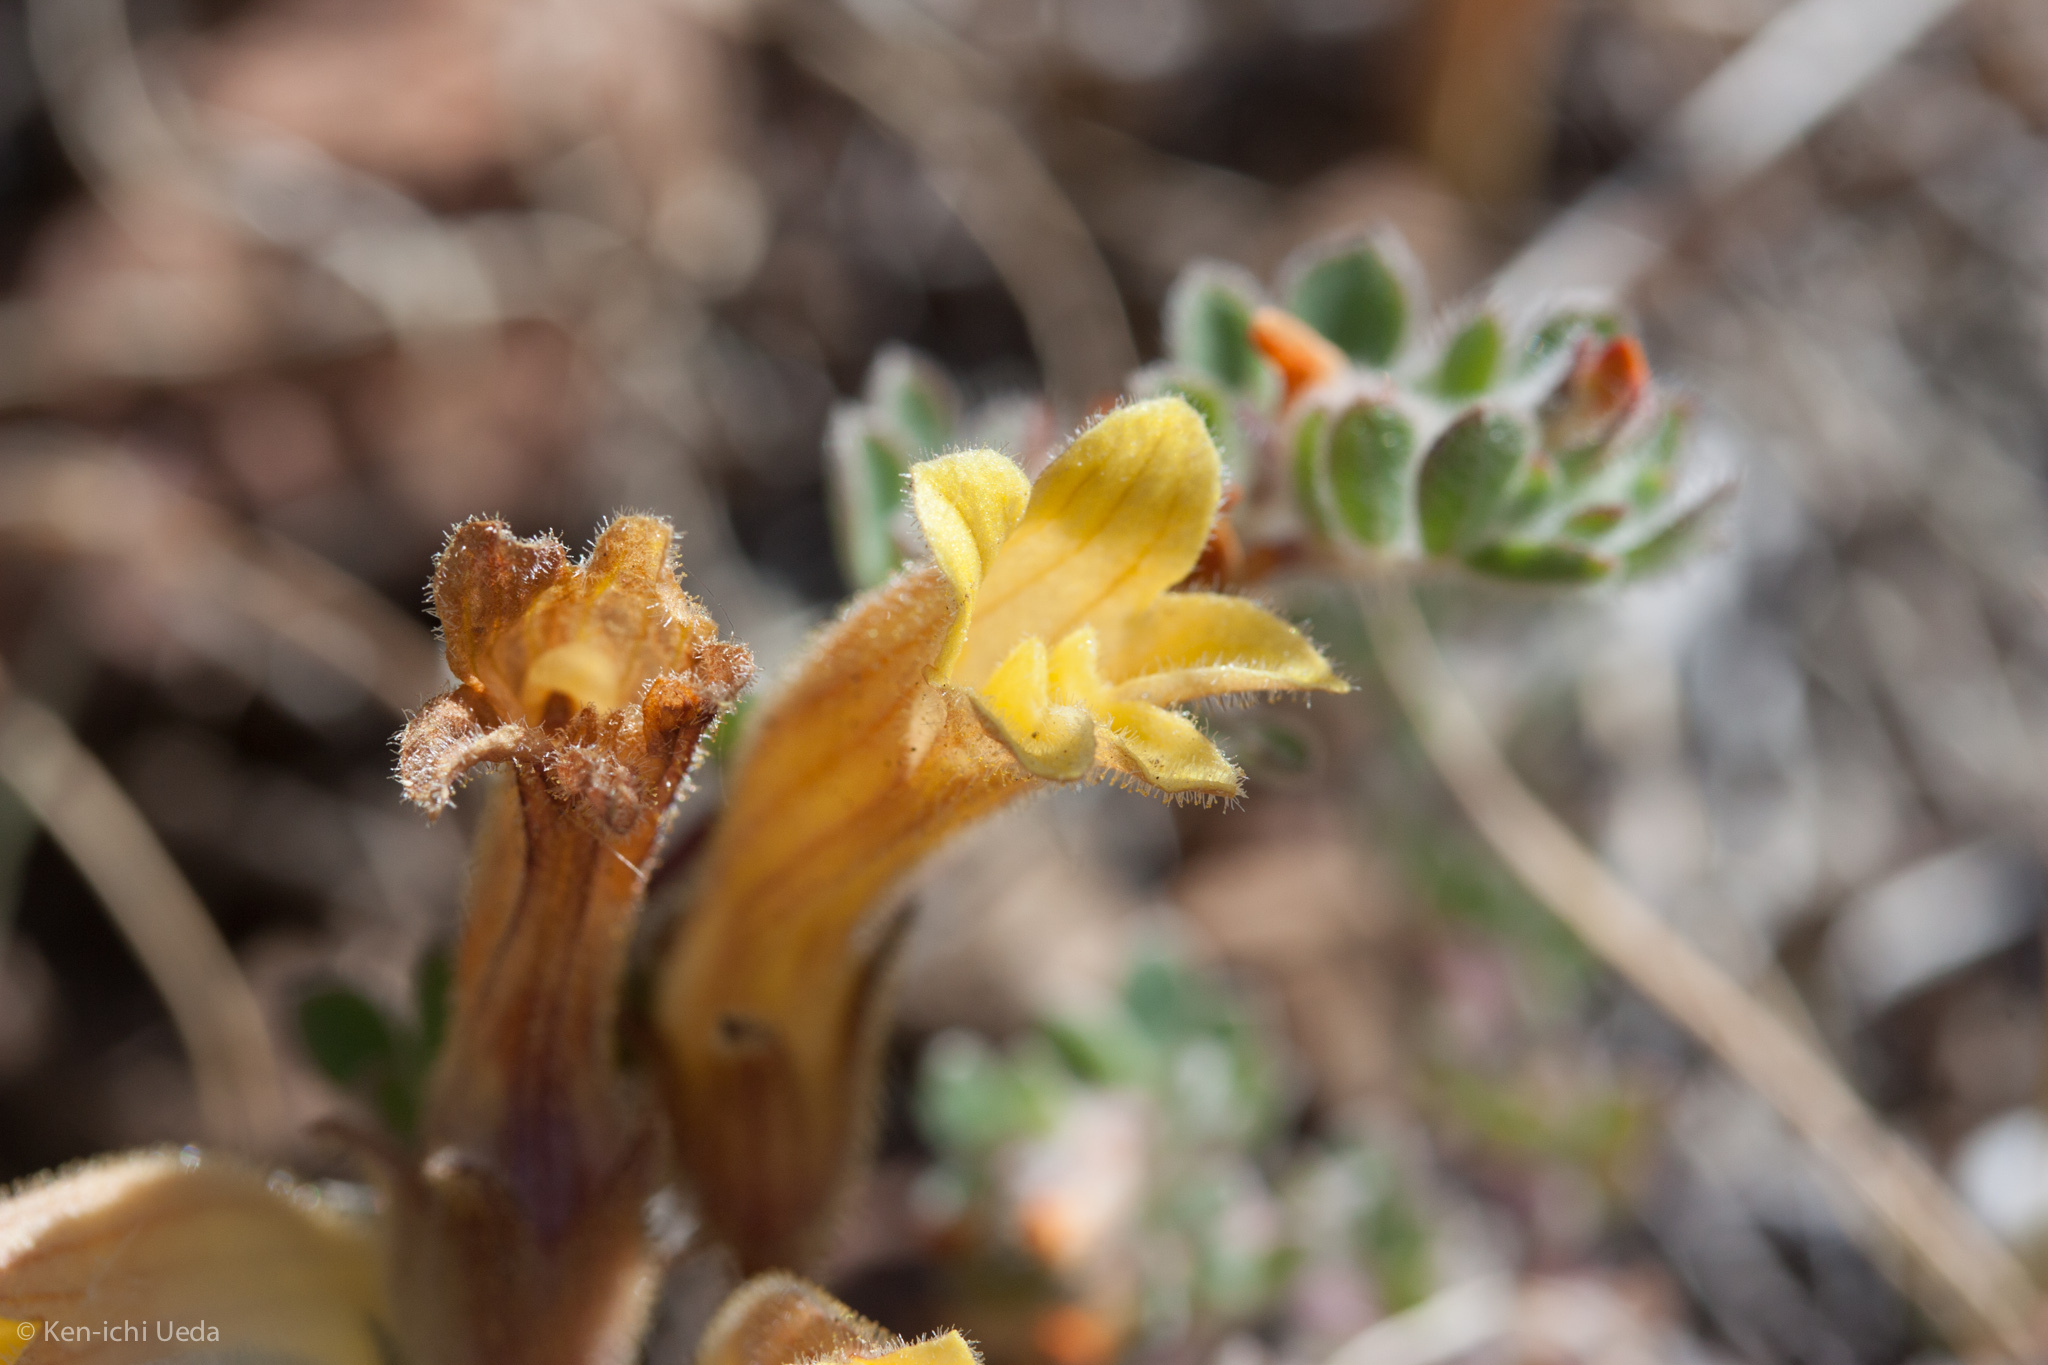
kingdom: Plantae
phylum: Tracheophyta
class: Magnoliopsida
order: Lamiales
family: Orobanchaceae
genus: Aphyllon
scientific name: Aphyllon franciscanum
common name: San francisco broomrape
